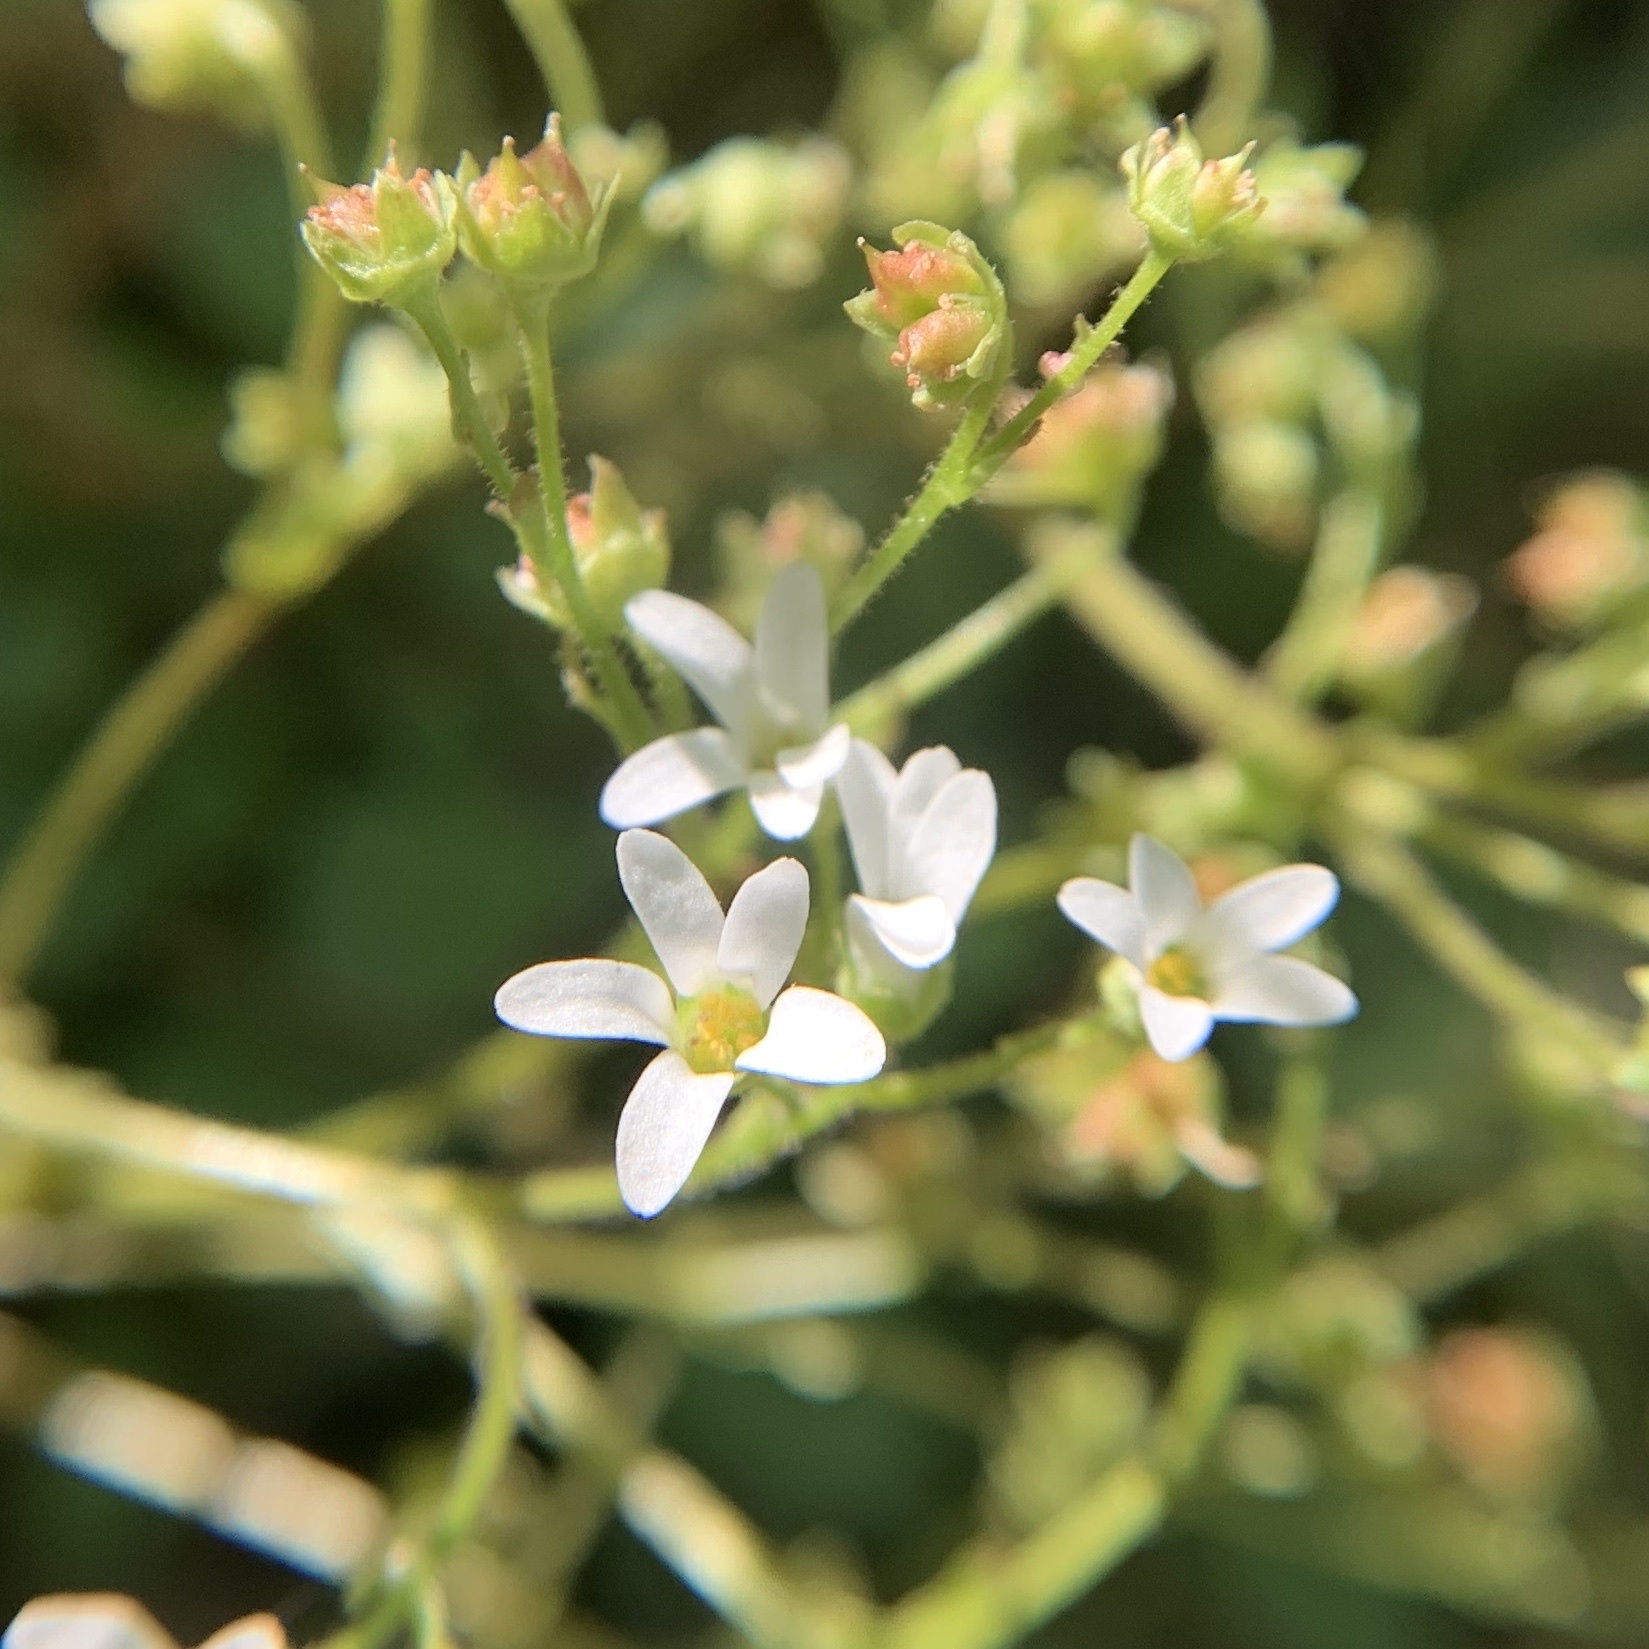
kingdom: Plantae
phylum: Tracheophyta
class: Magnoliopsida
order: Saxifragales
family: Saxifragaceae
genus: Micranthes
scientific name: Micranthes virginiensis
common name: Early saxifrage
